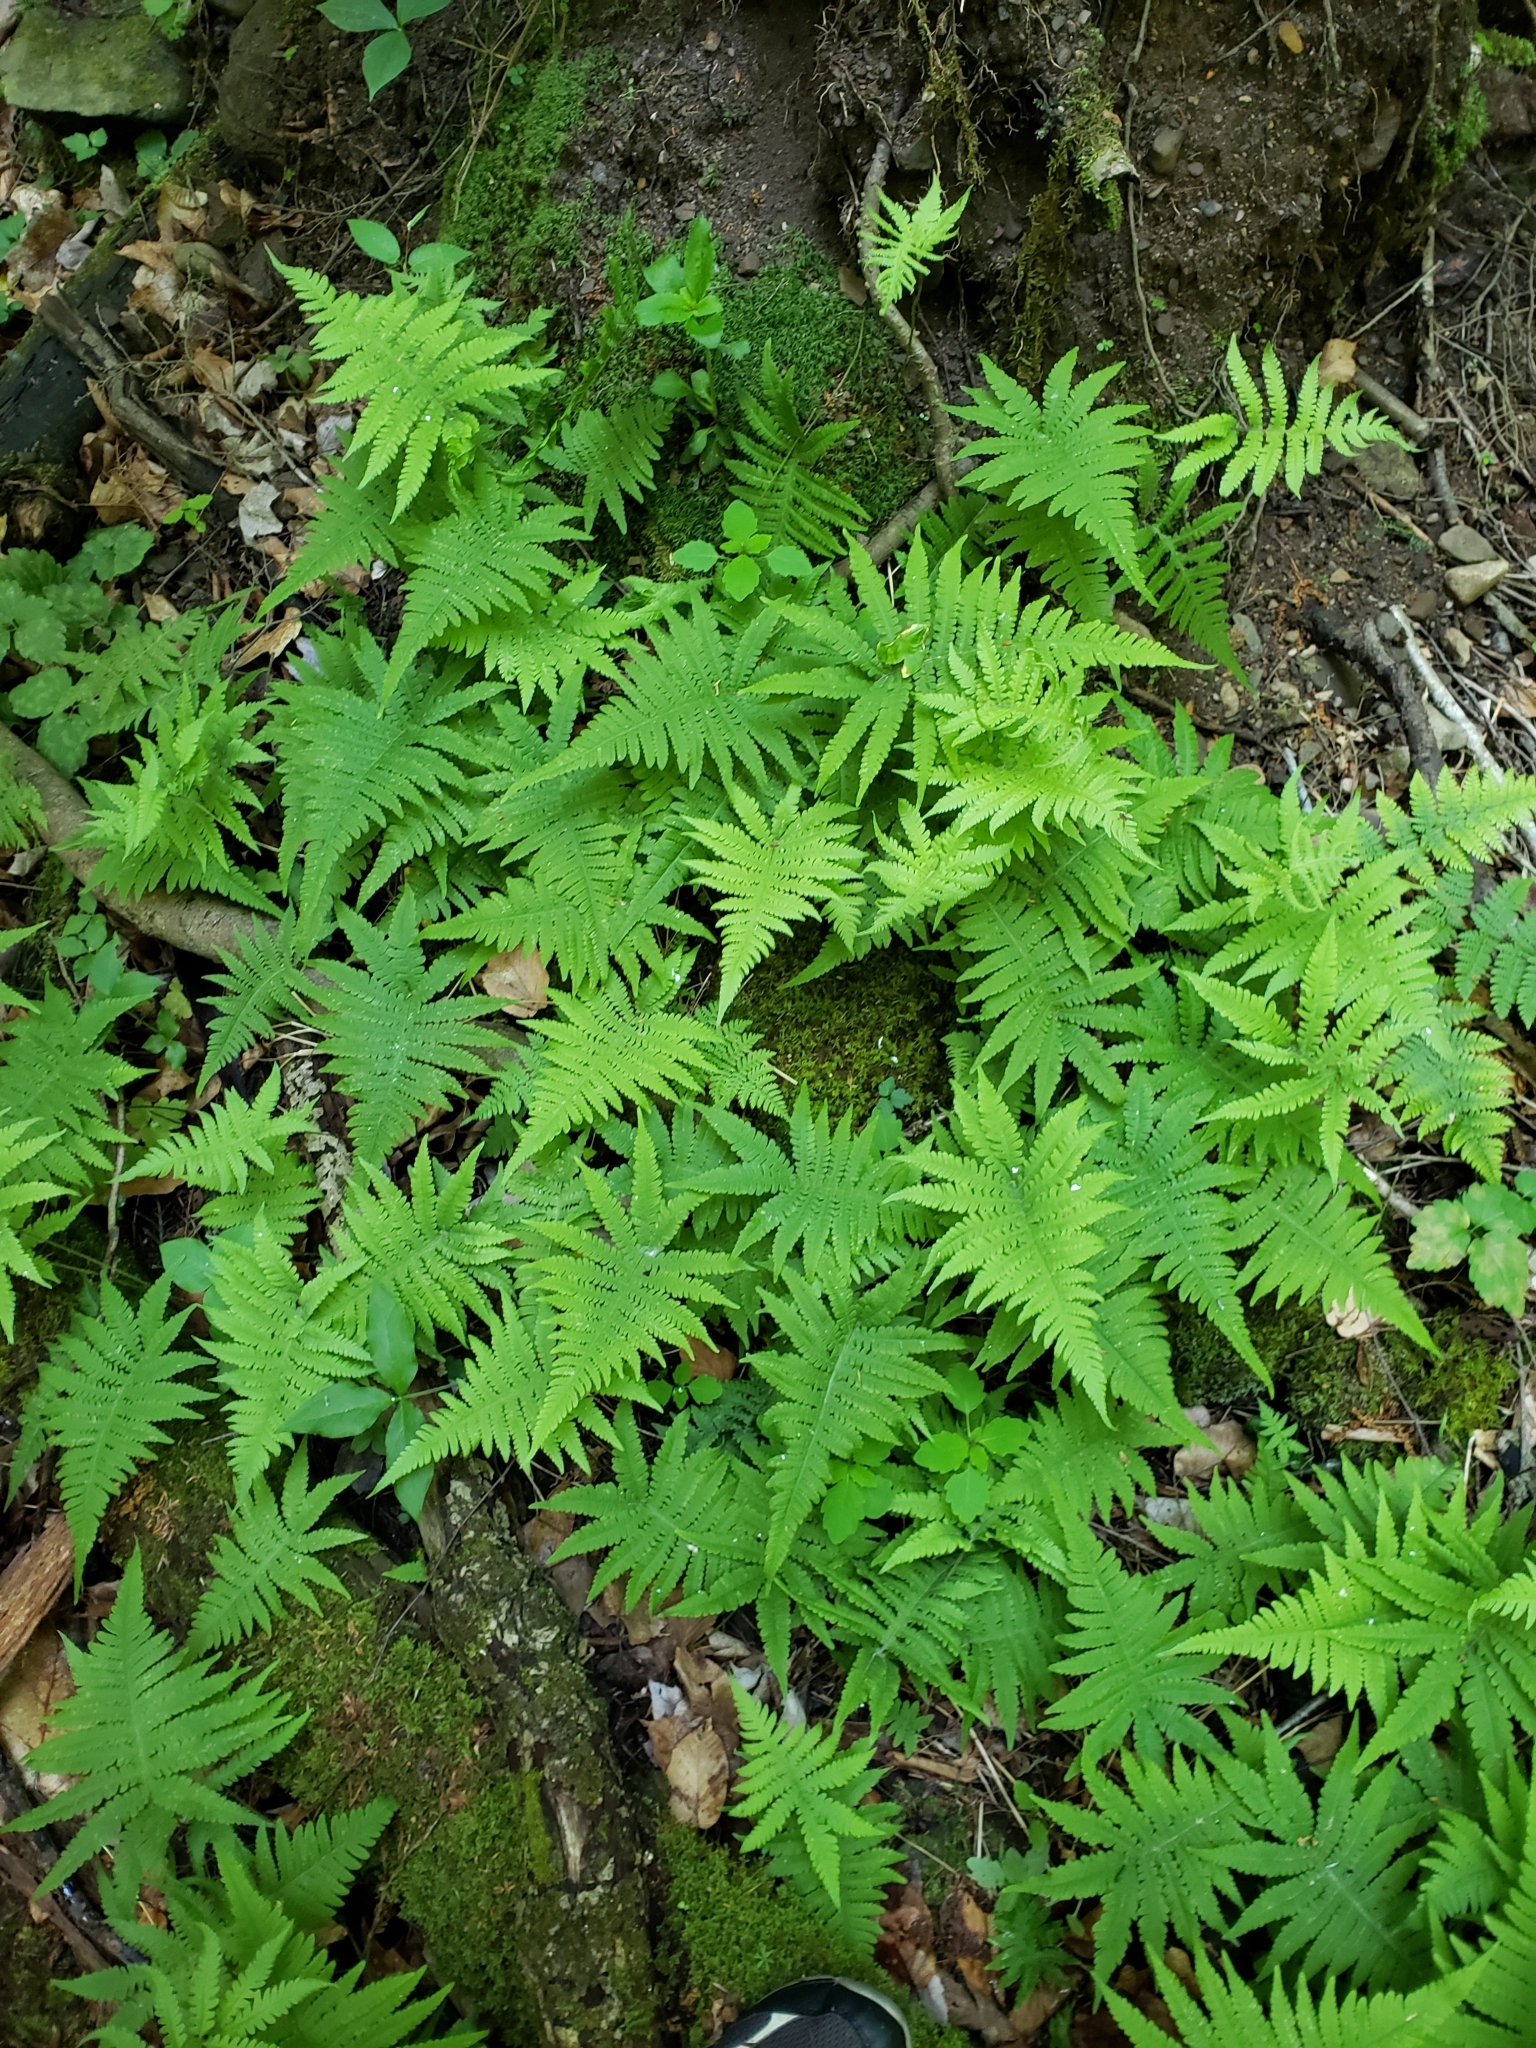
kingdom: Plantae
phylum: Tracheophyta
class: Polypodiopsida
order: Polypodiales
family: Thelypteridaceae
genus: Phegopteris
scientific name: Phegopteris connectilis
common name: Beech fern
